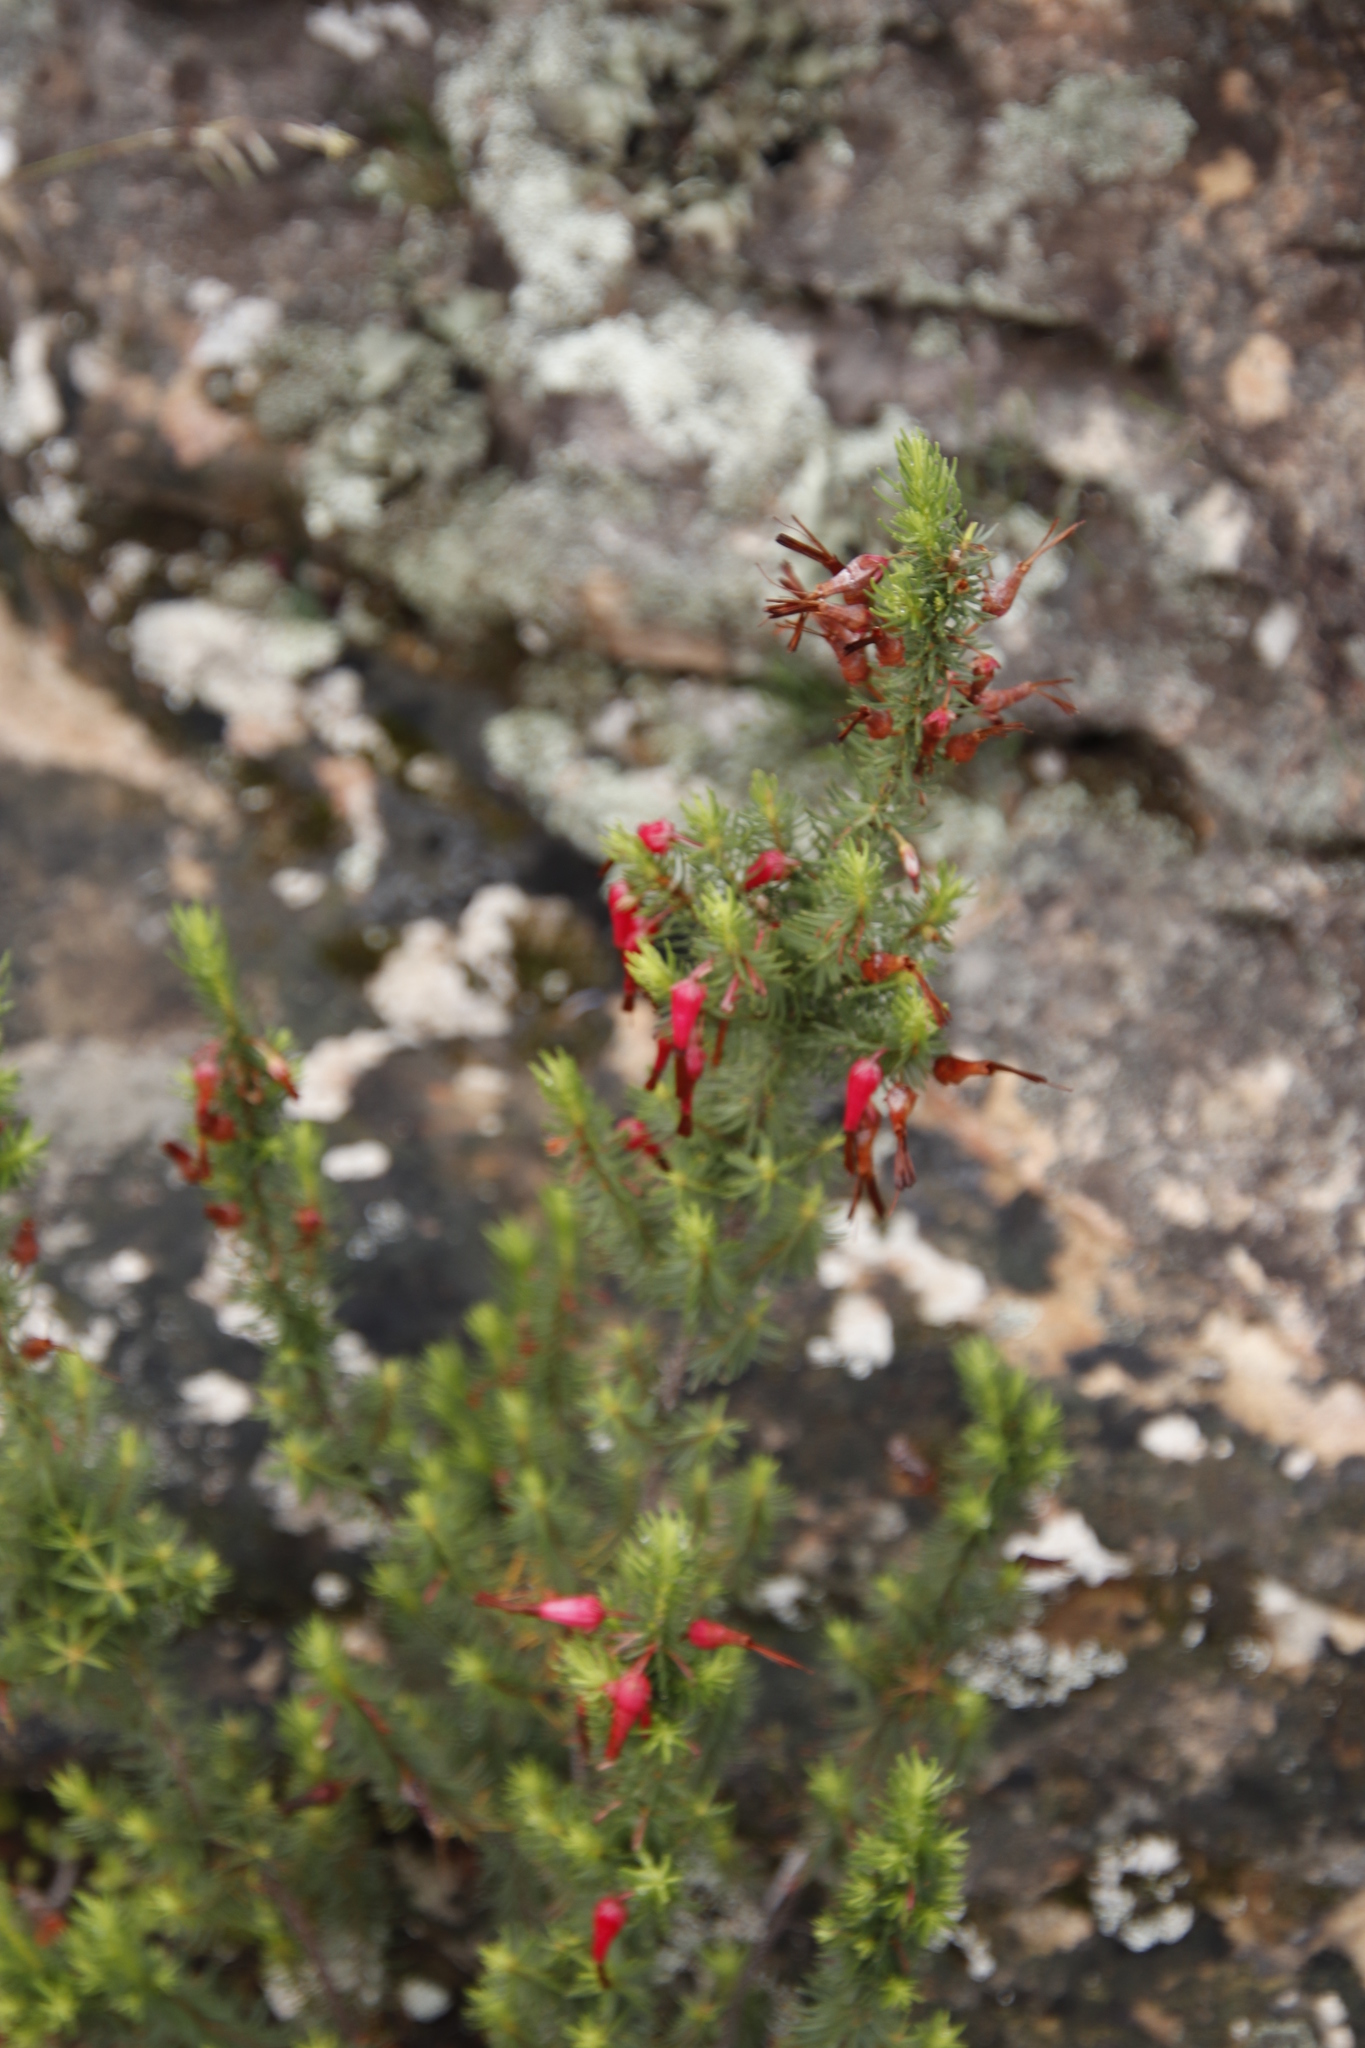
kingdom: Plantae
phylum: Tracheophyta
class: Magnoliopsida
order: Ericales
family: Ericaceae
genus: Erica
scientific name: Erica plukenetii
